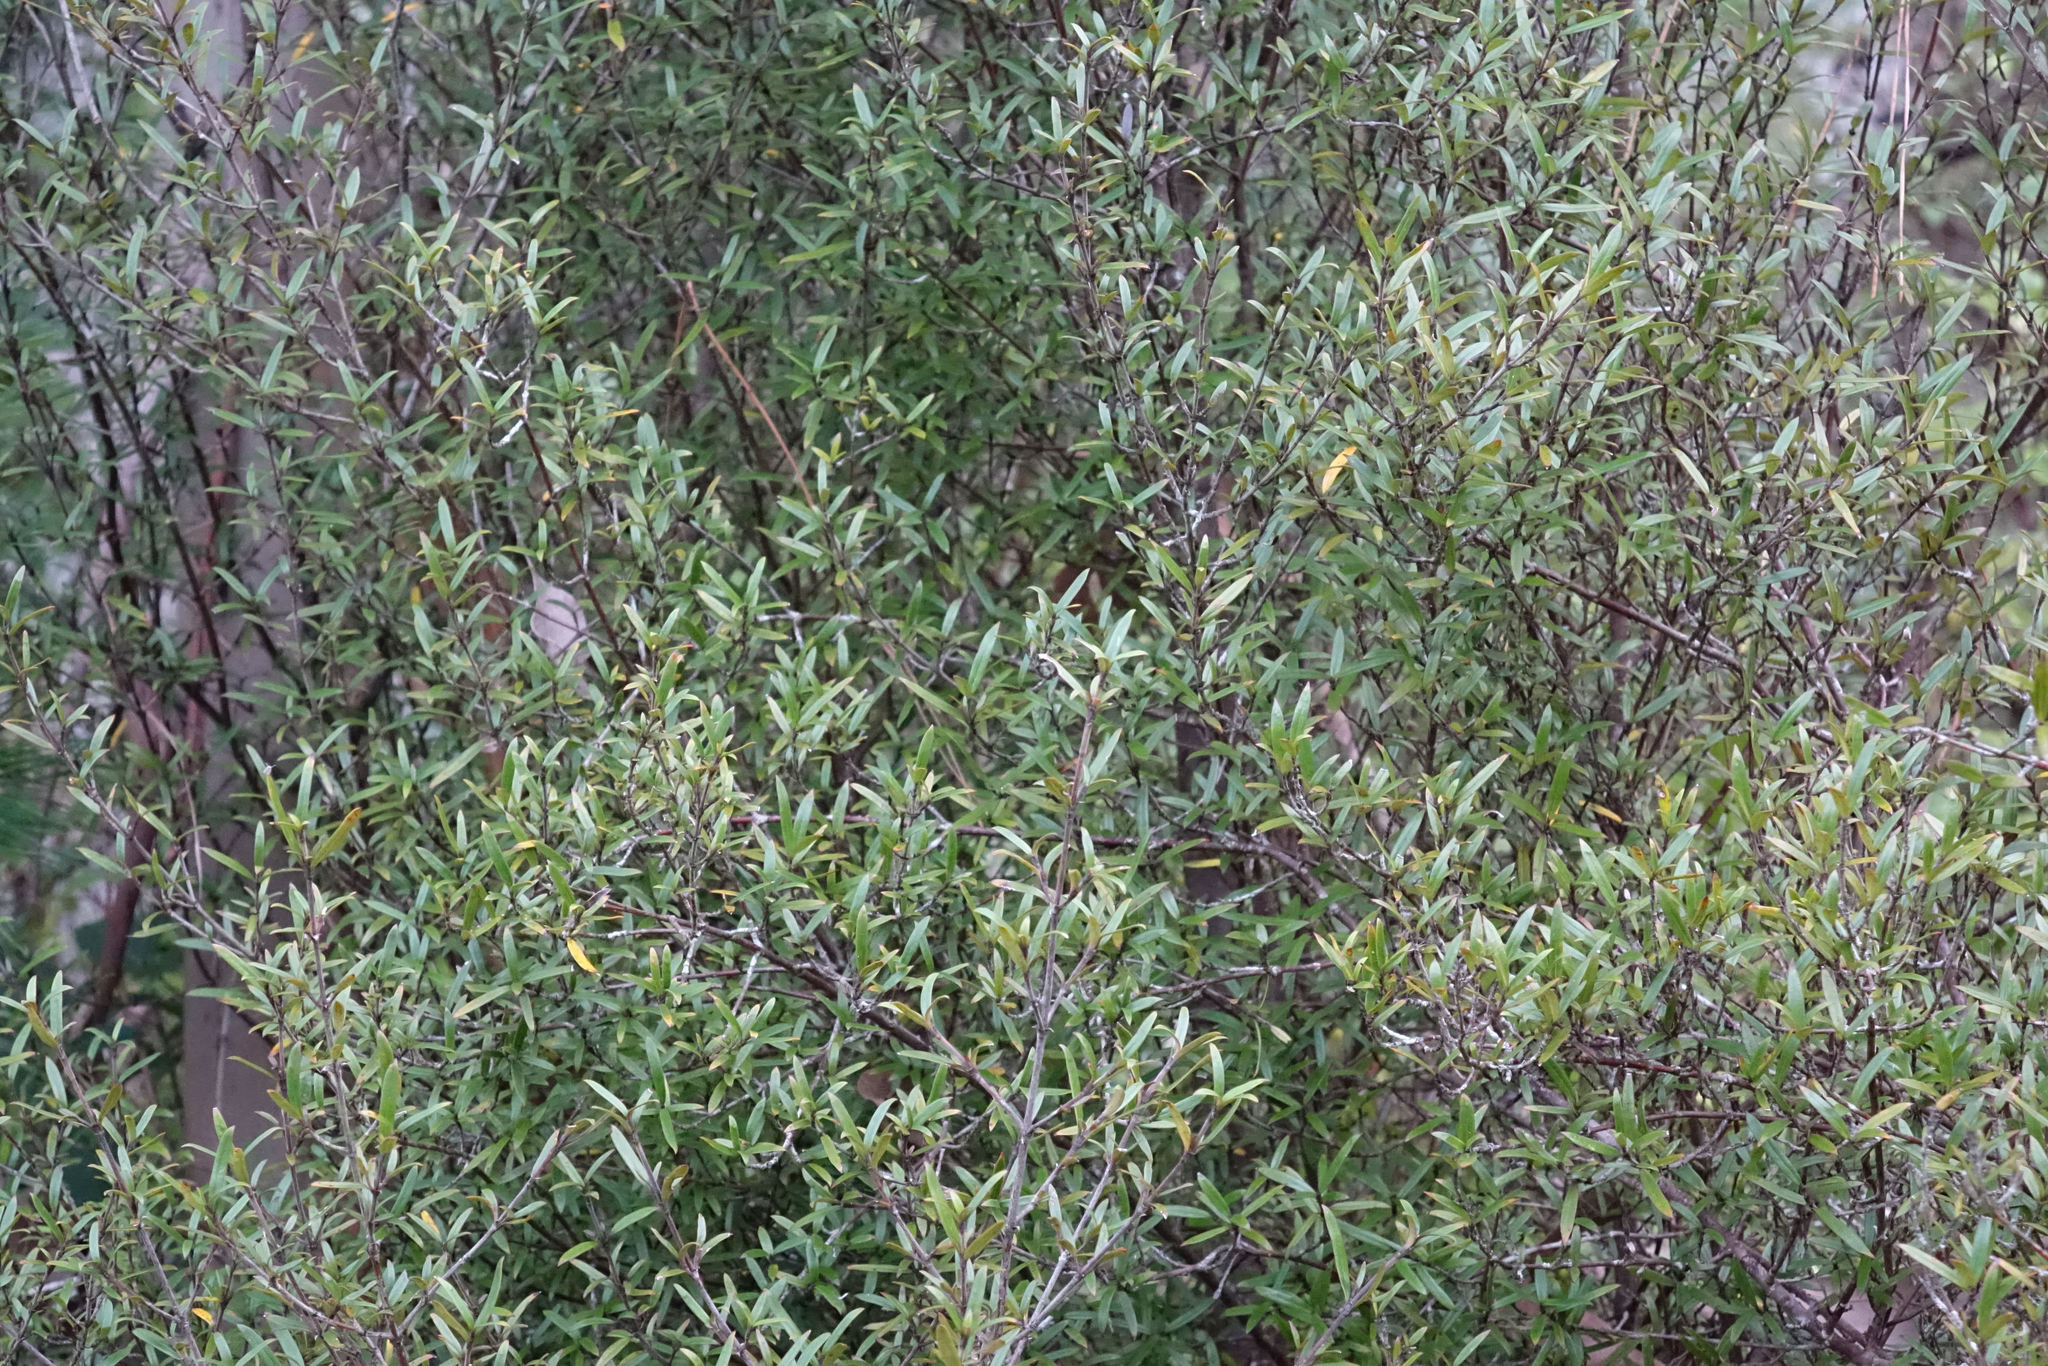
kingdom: Plantae
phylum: Tracheophyta
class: Magnoliopsida
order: Gentianales
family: Rubiaceae
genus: Coprosma
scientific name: Coprosma linariifolia
